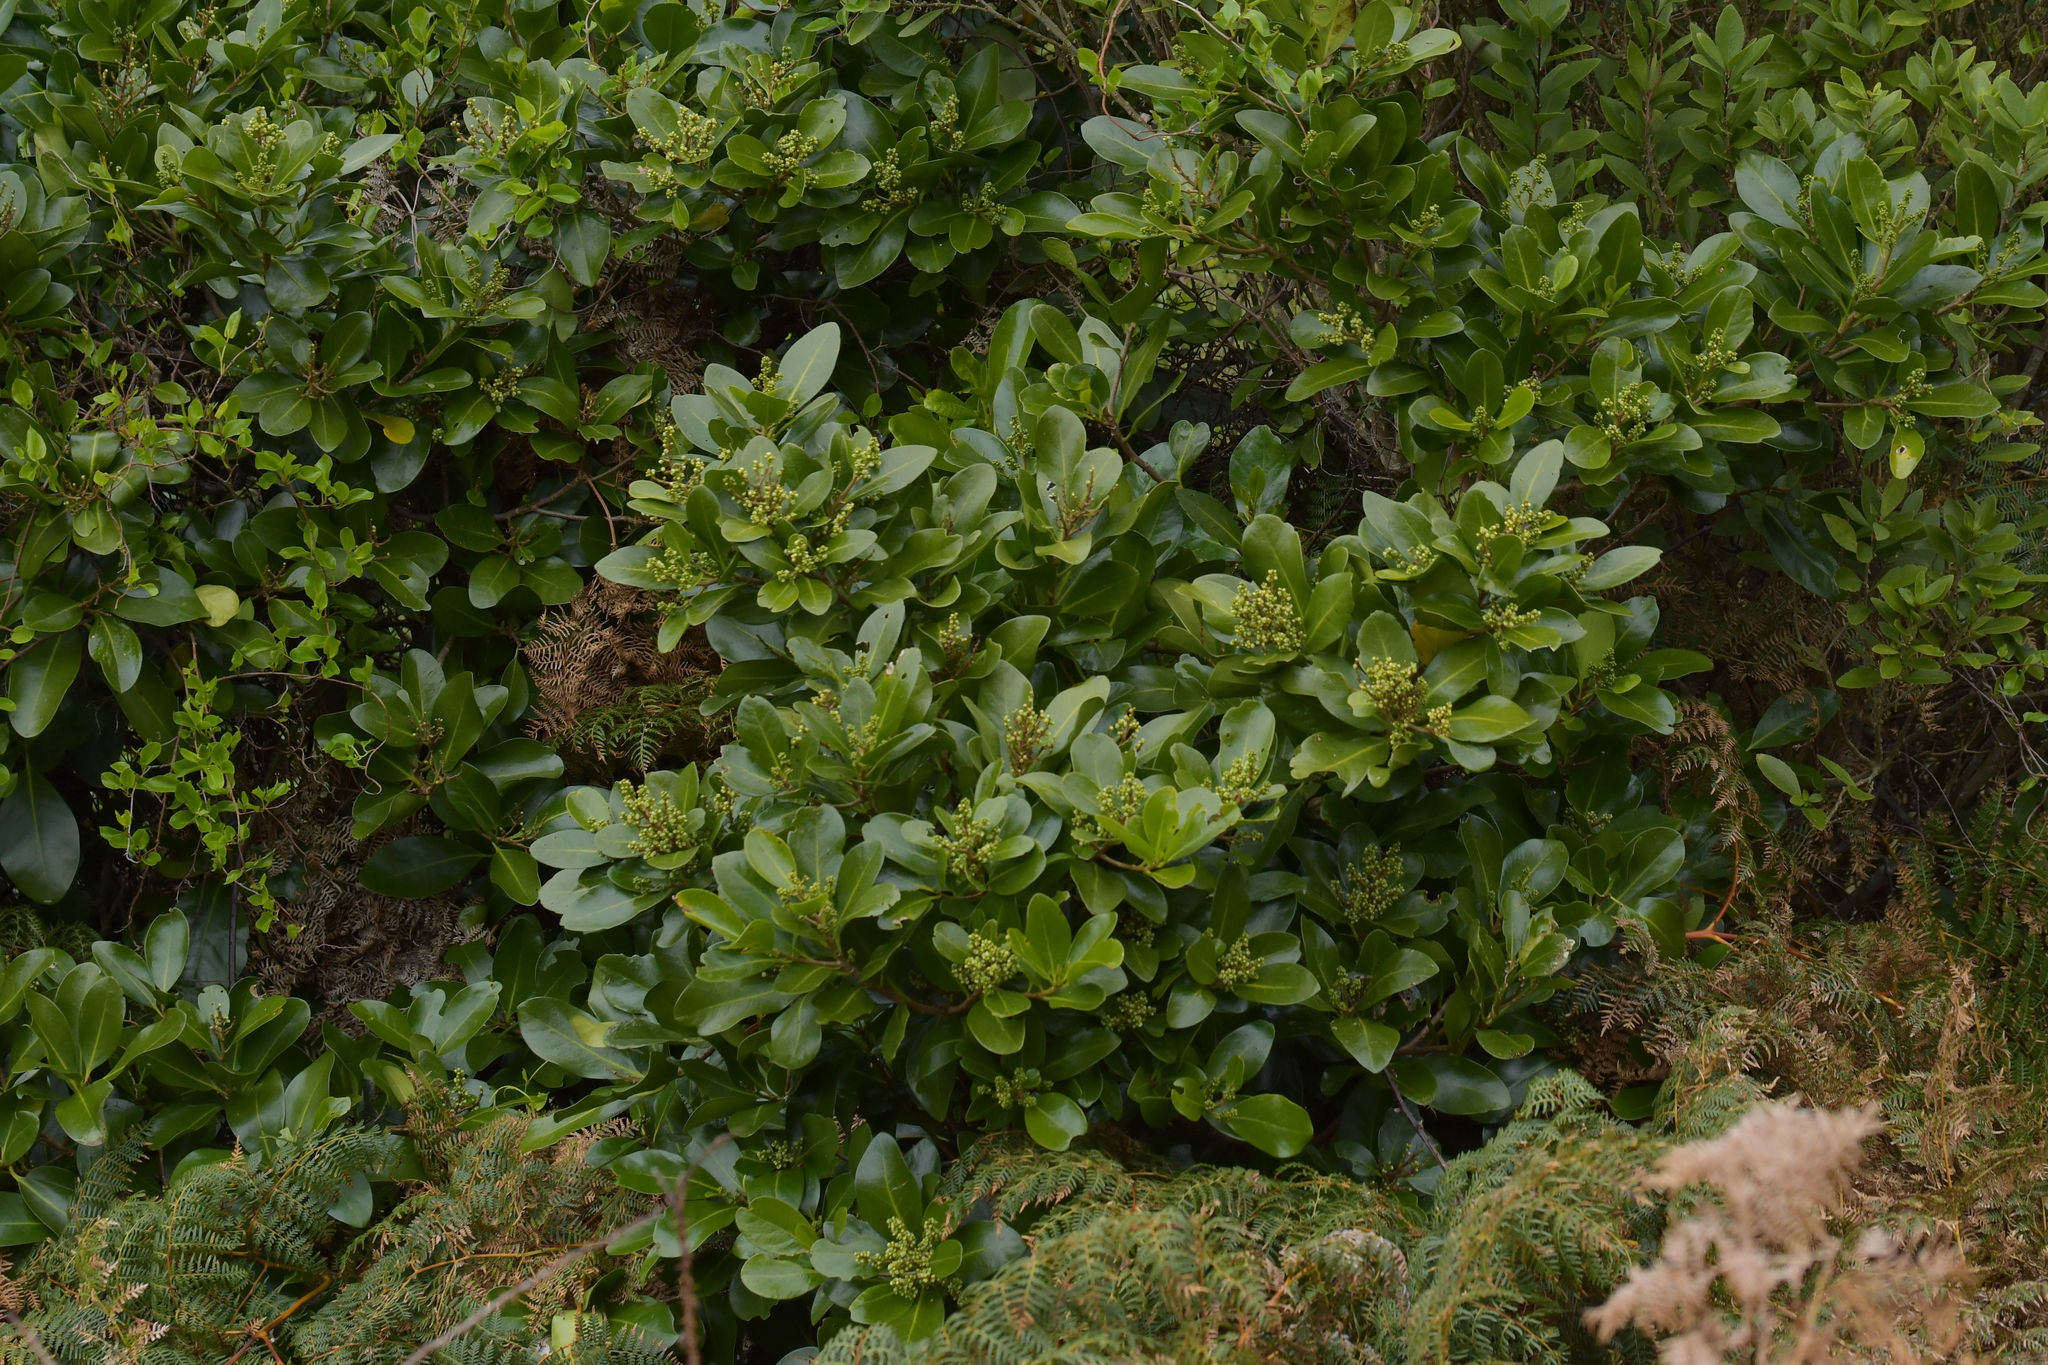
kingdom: Plantae
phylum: Tracheophyta
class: Magnoliopsida
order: Apiales
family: Araliaceae
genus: Pseudopanax
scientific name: Pseudopanax chathamicus
